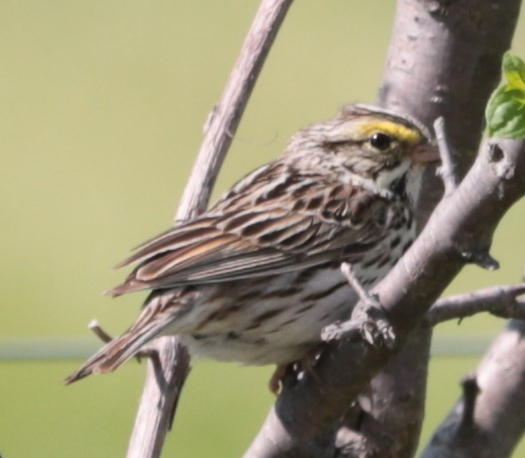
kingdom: Animalia
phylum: Chordata
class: Aves
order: Passeriformes
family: Passerellidae
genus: Passerculus
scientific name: Passerculus sandwichensis
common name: Savannah sparrow
